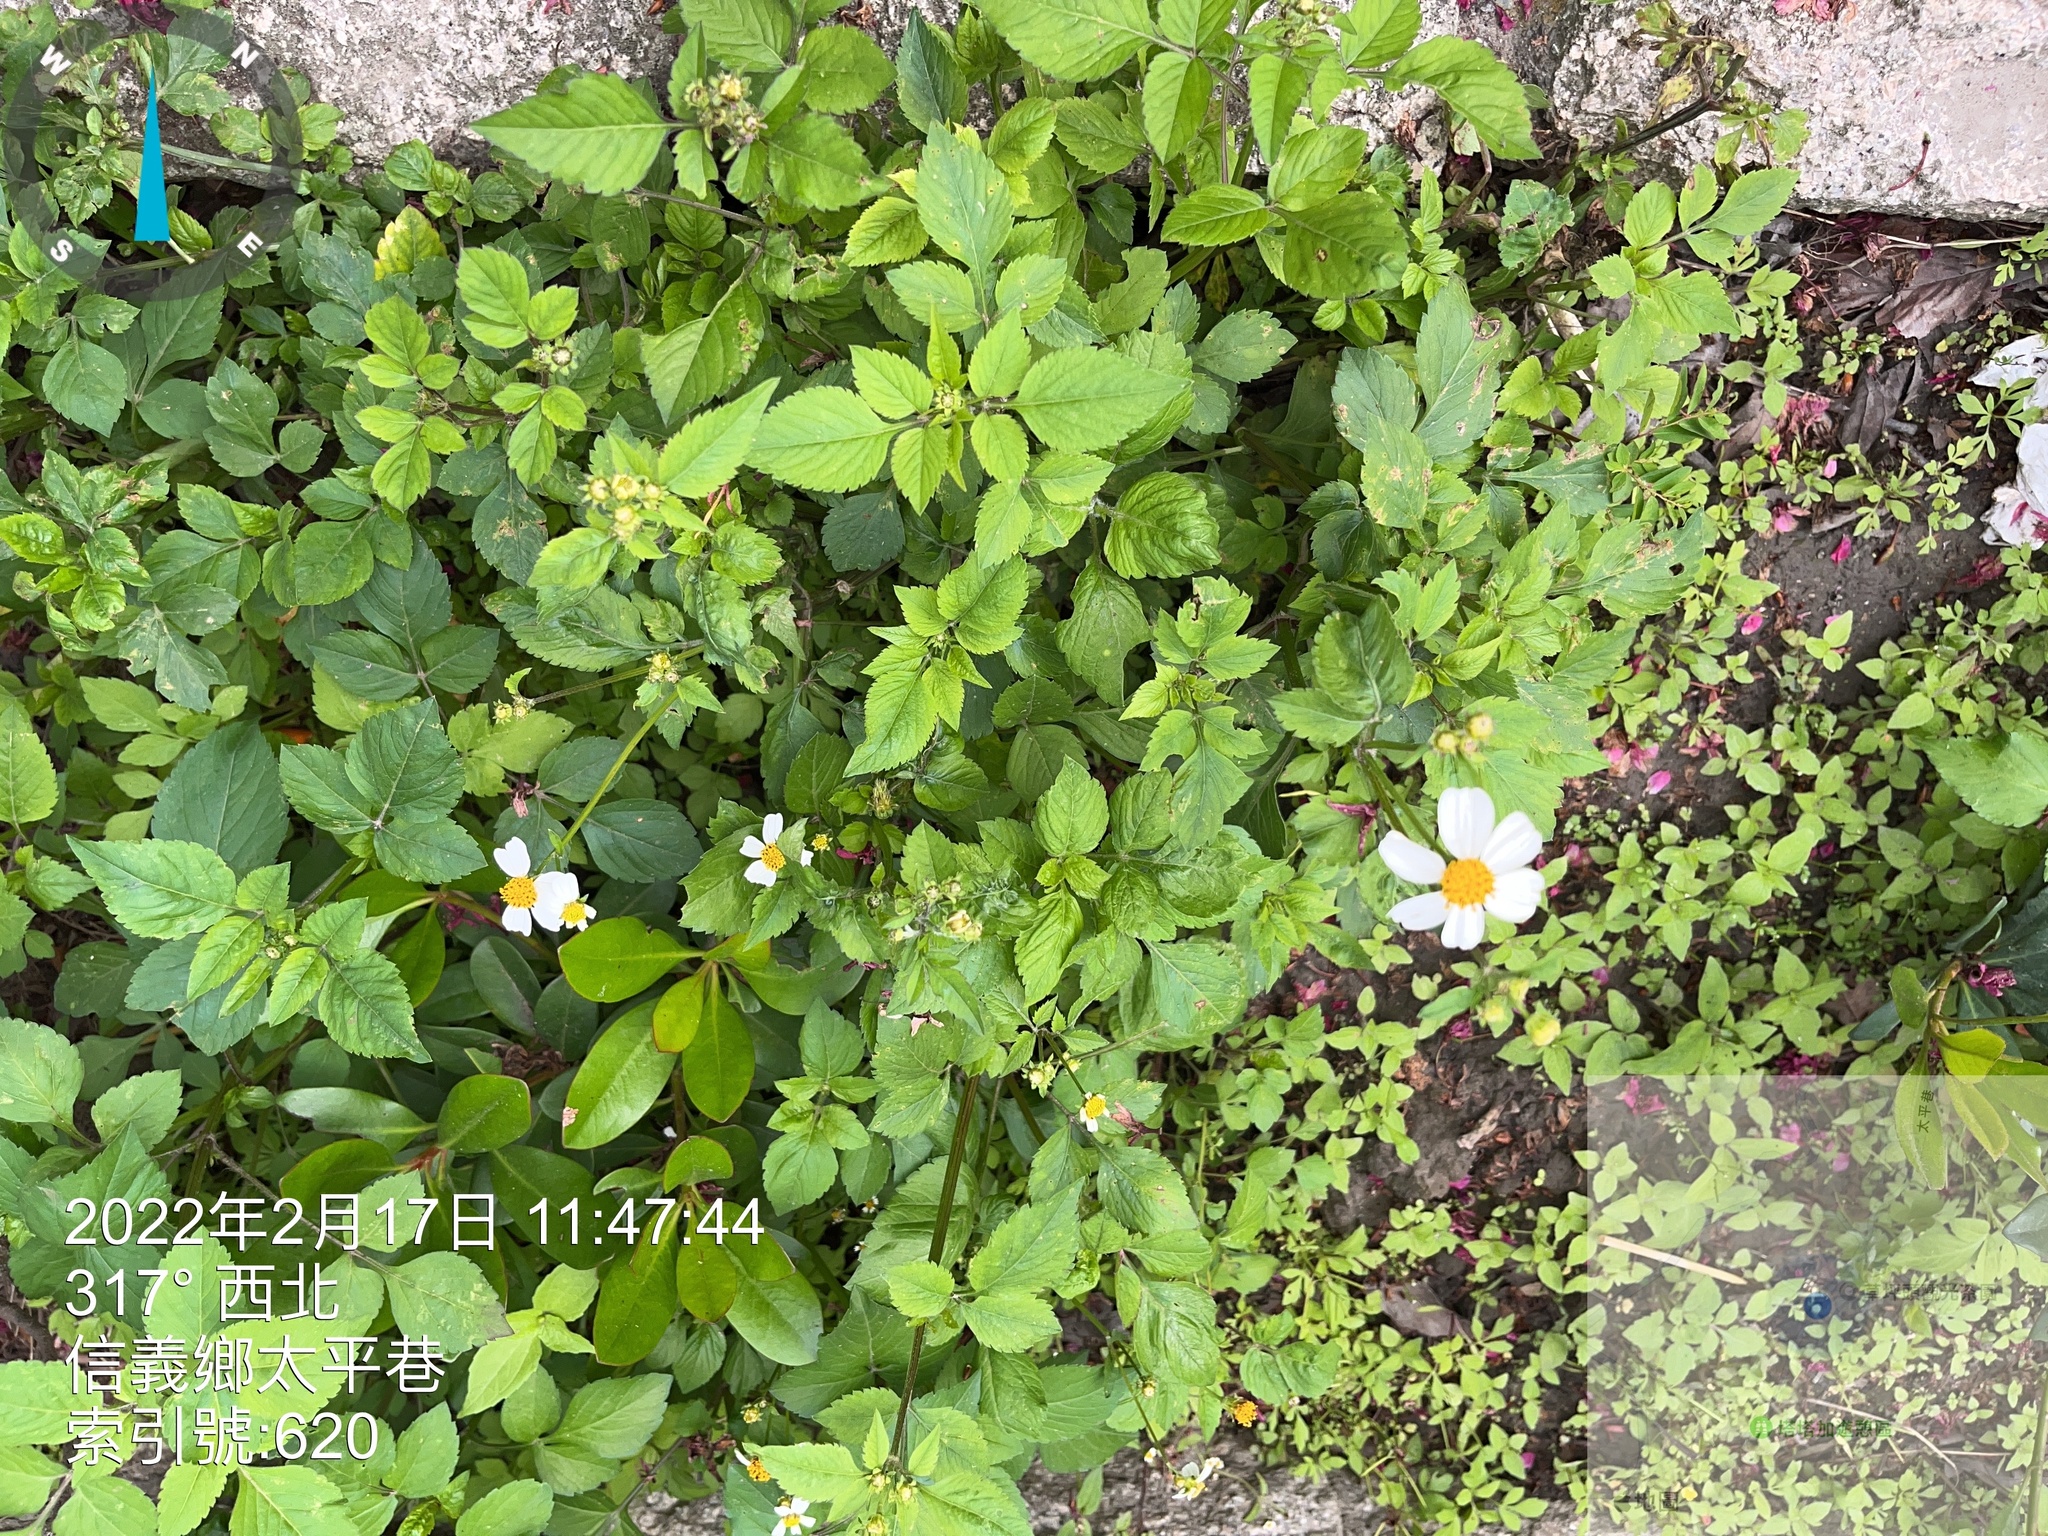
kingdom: Plantae
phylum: Tracheophyta
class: Magnoliopsida
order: Asterales
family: Asteraceae
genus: Bidens
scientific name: Bidens alba
